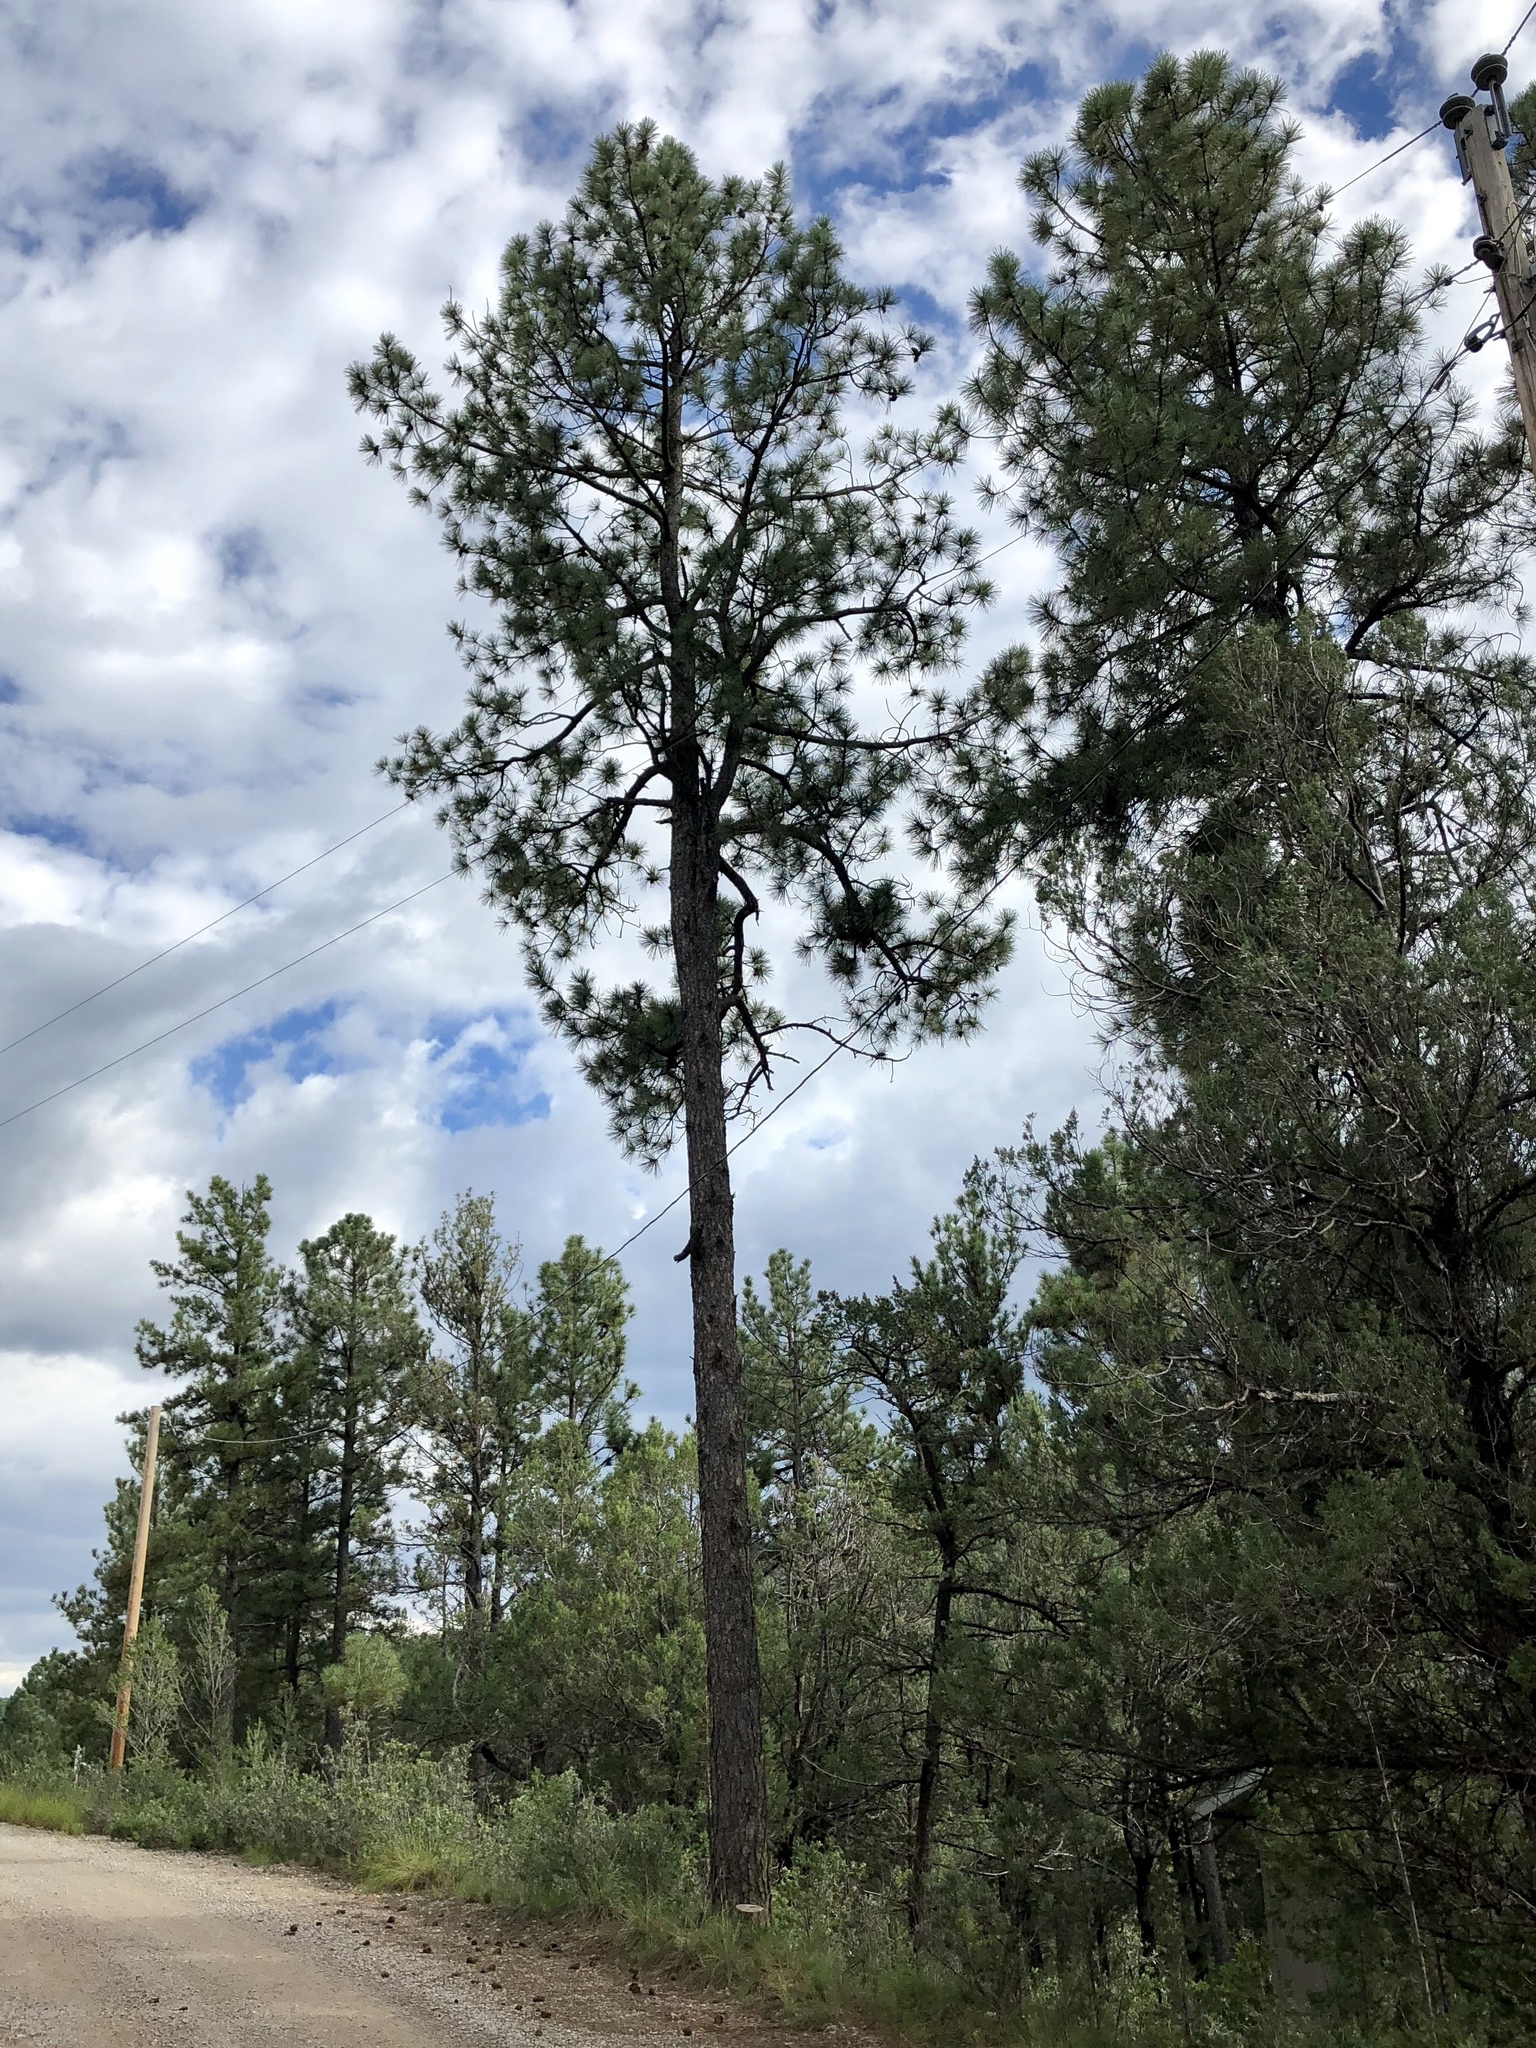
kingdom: Plantae
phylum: Tracheophyta
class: Pinopsida
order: Pinales
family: Pinaceae
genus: Pinus
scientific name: Pinus ponderosa
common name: Western yellow-pine
